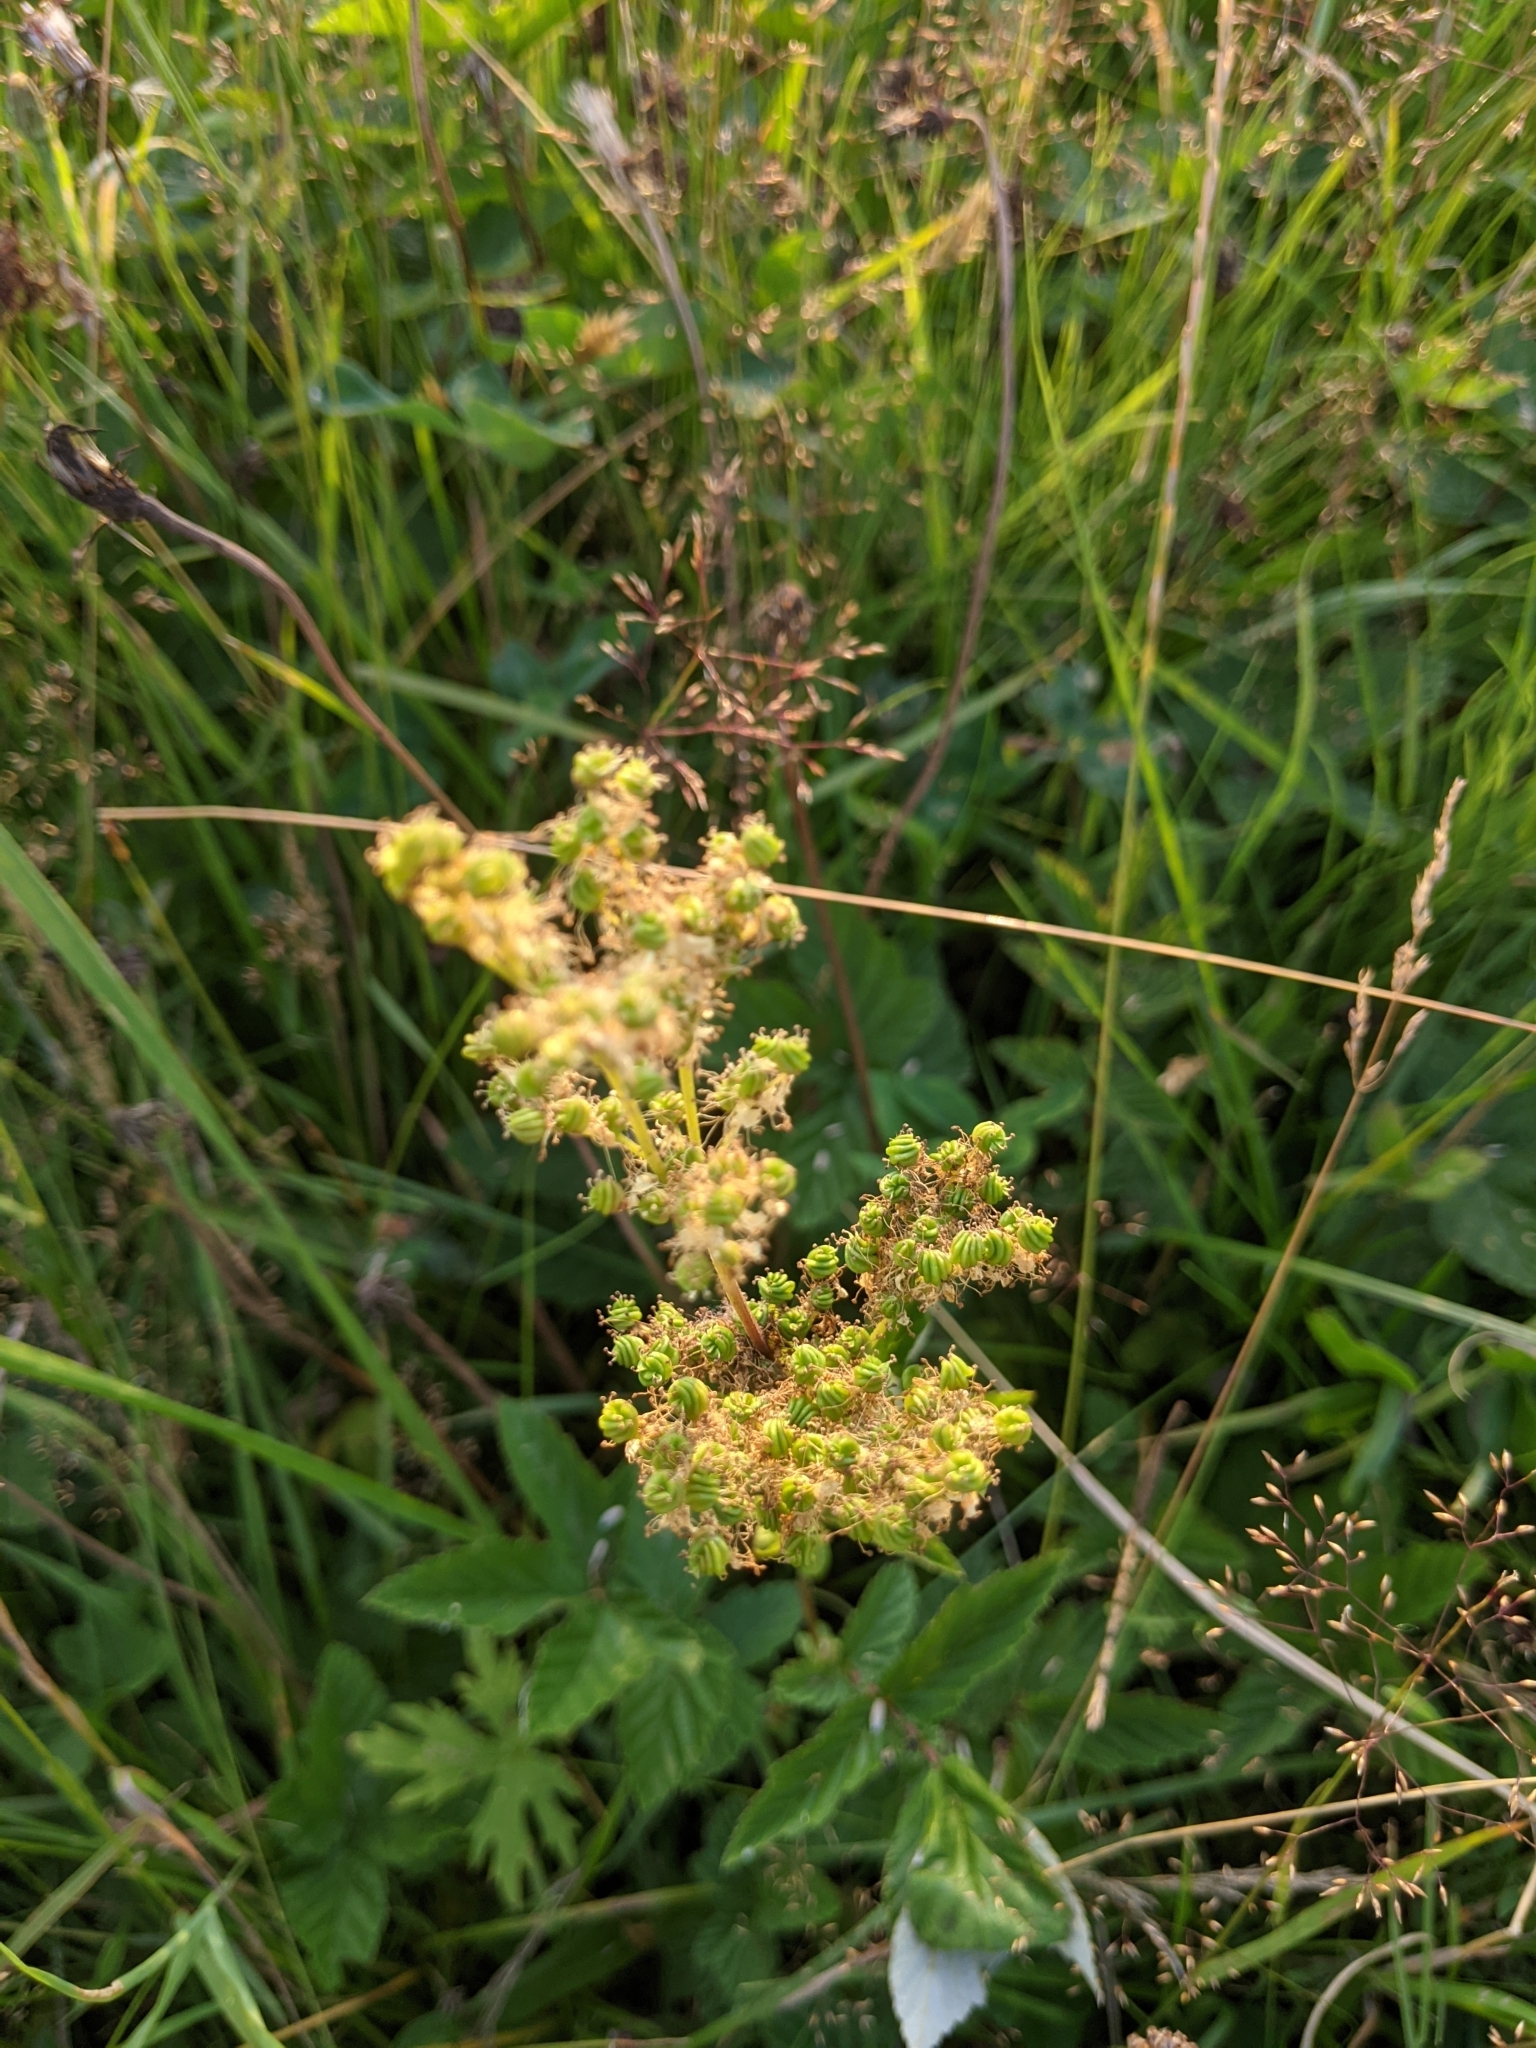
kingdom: Plantae
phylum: Tracheophyta
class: Magnoliopsida
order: Rosales
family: Rosaceae
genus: Filipendula
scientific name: Filipendula ulmaria
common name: Meadowsweet
